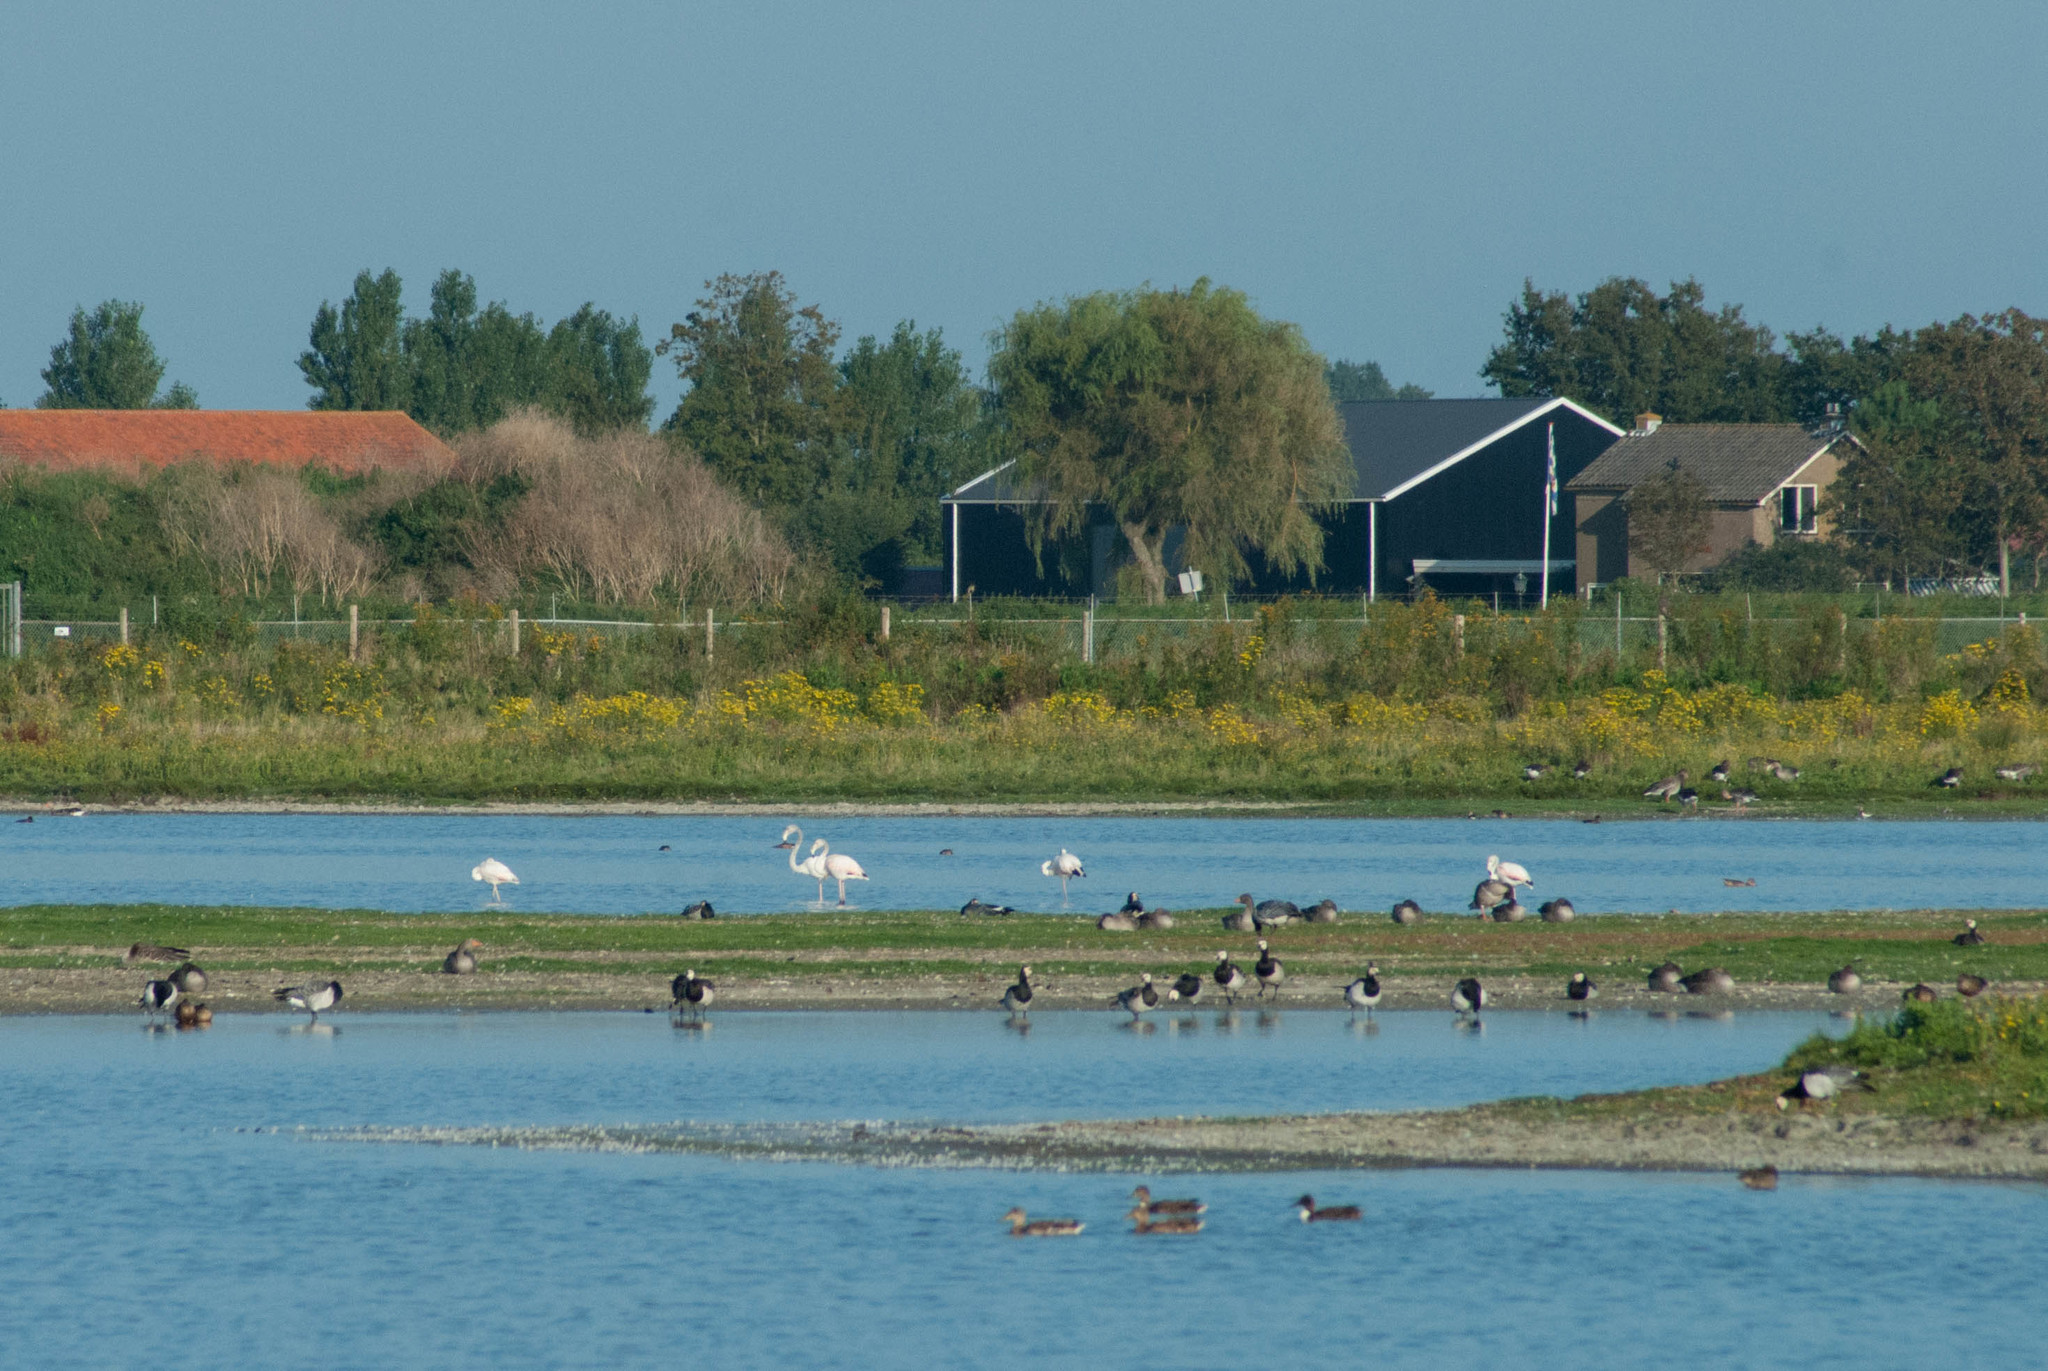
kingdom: Animalia
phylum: Chordata
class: Aves
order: Phoenicopteriformes
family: Phoenicopteridae
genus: Phoenicopterus
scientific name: Phoenicopterus roseus
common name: Greater flamingo
